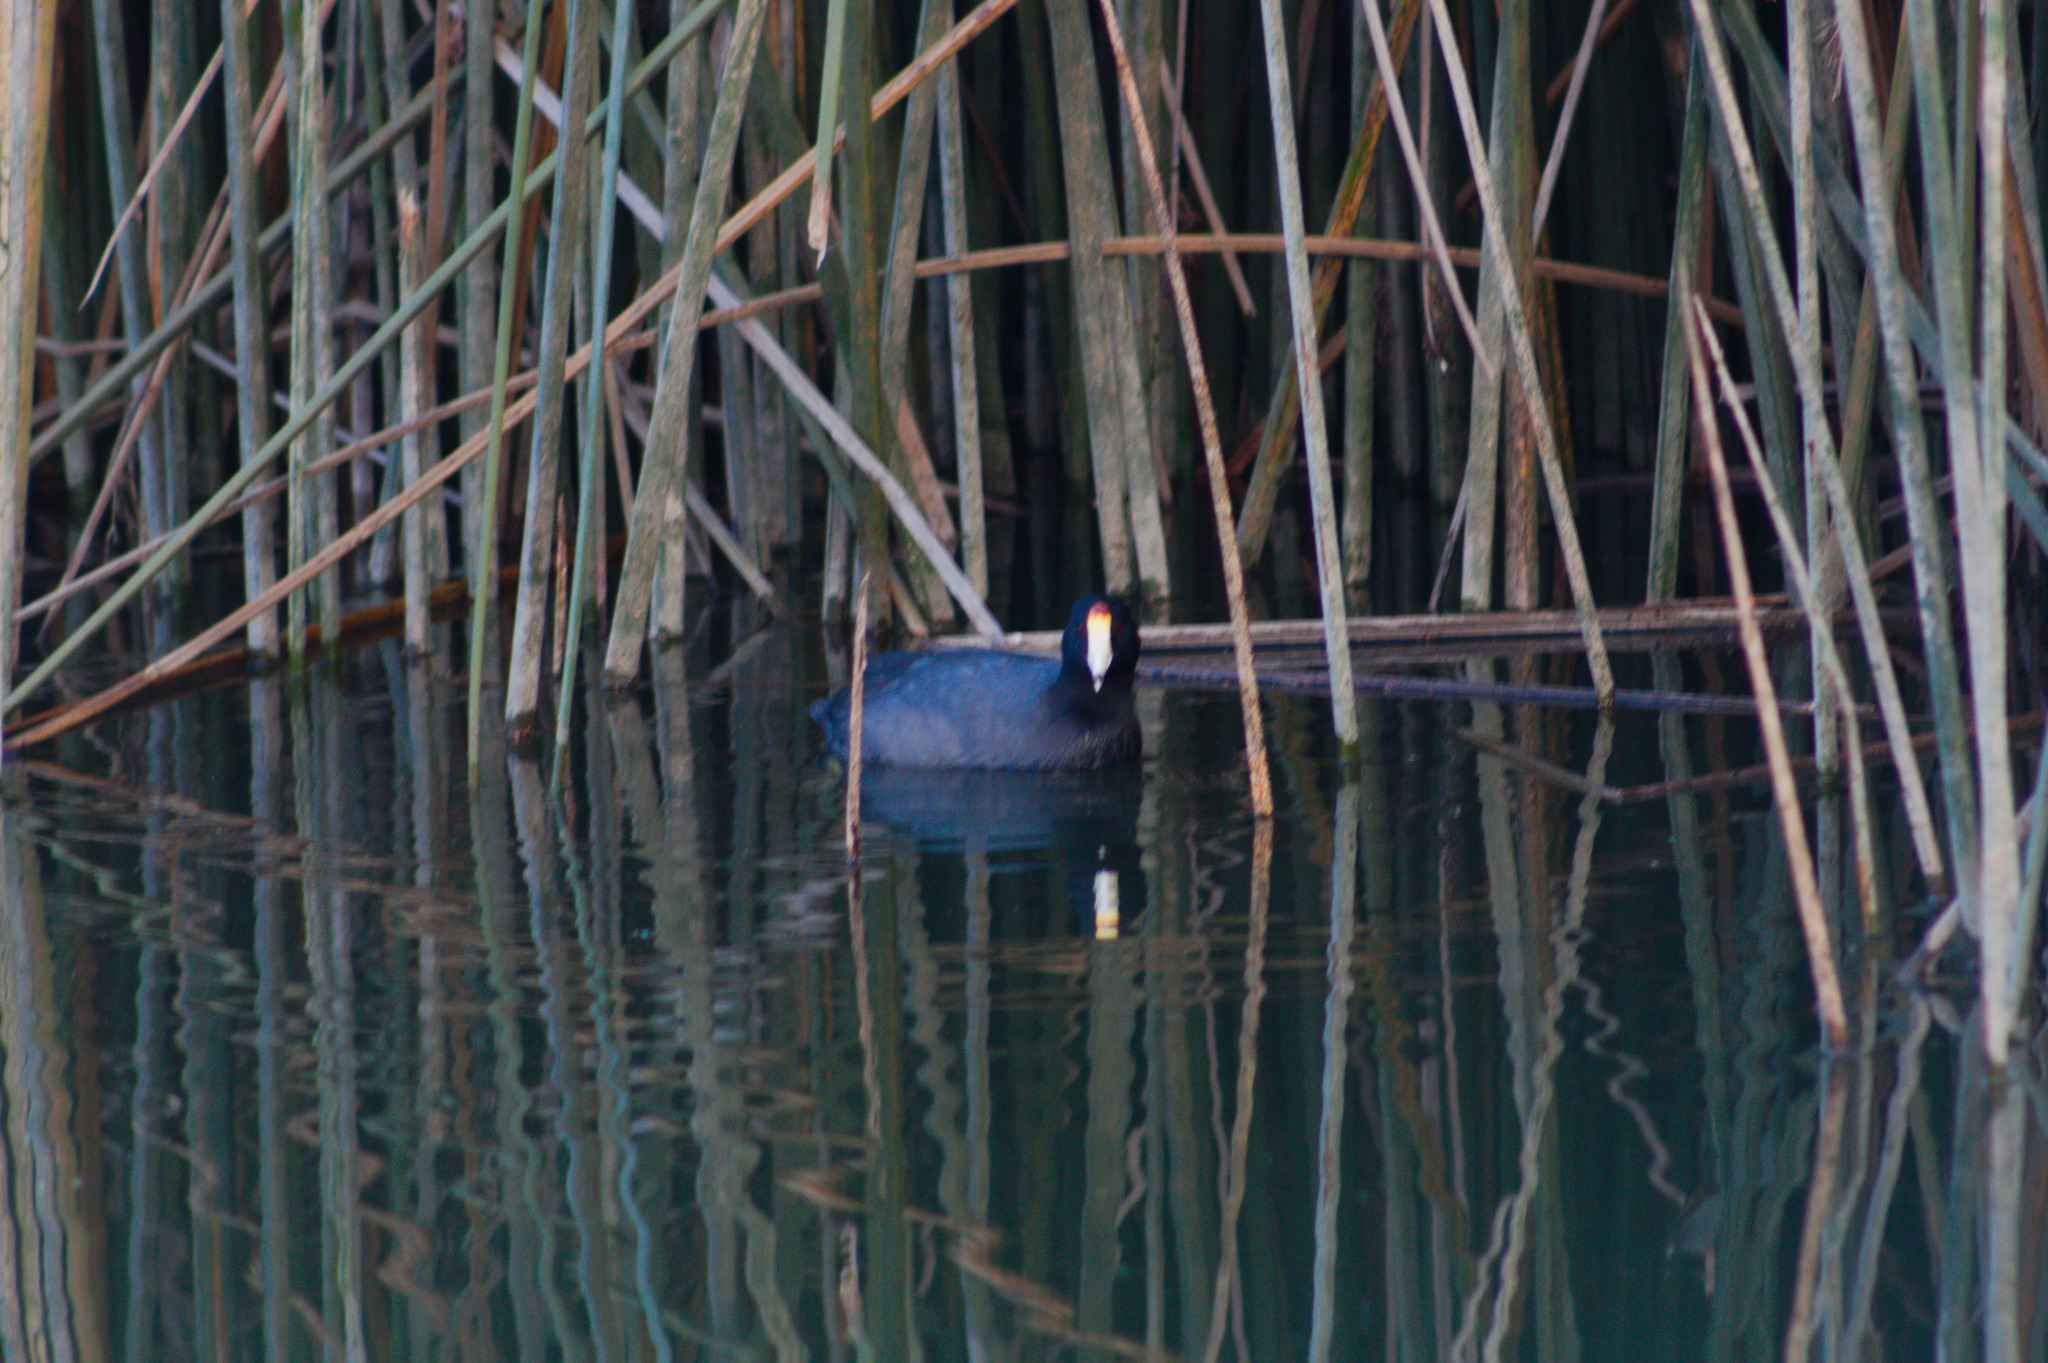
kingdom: Animalia
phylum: Chordata
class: Aves
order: Gruiformes
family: Rallidae
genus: Fulica
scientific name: Fulica americana
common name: American coot
